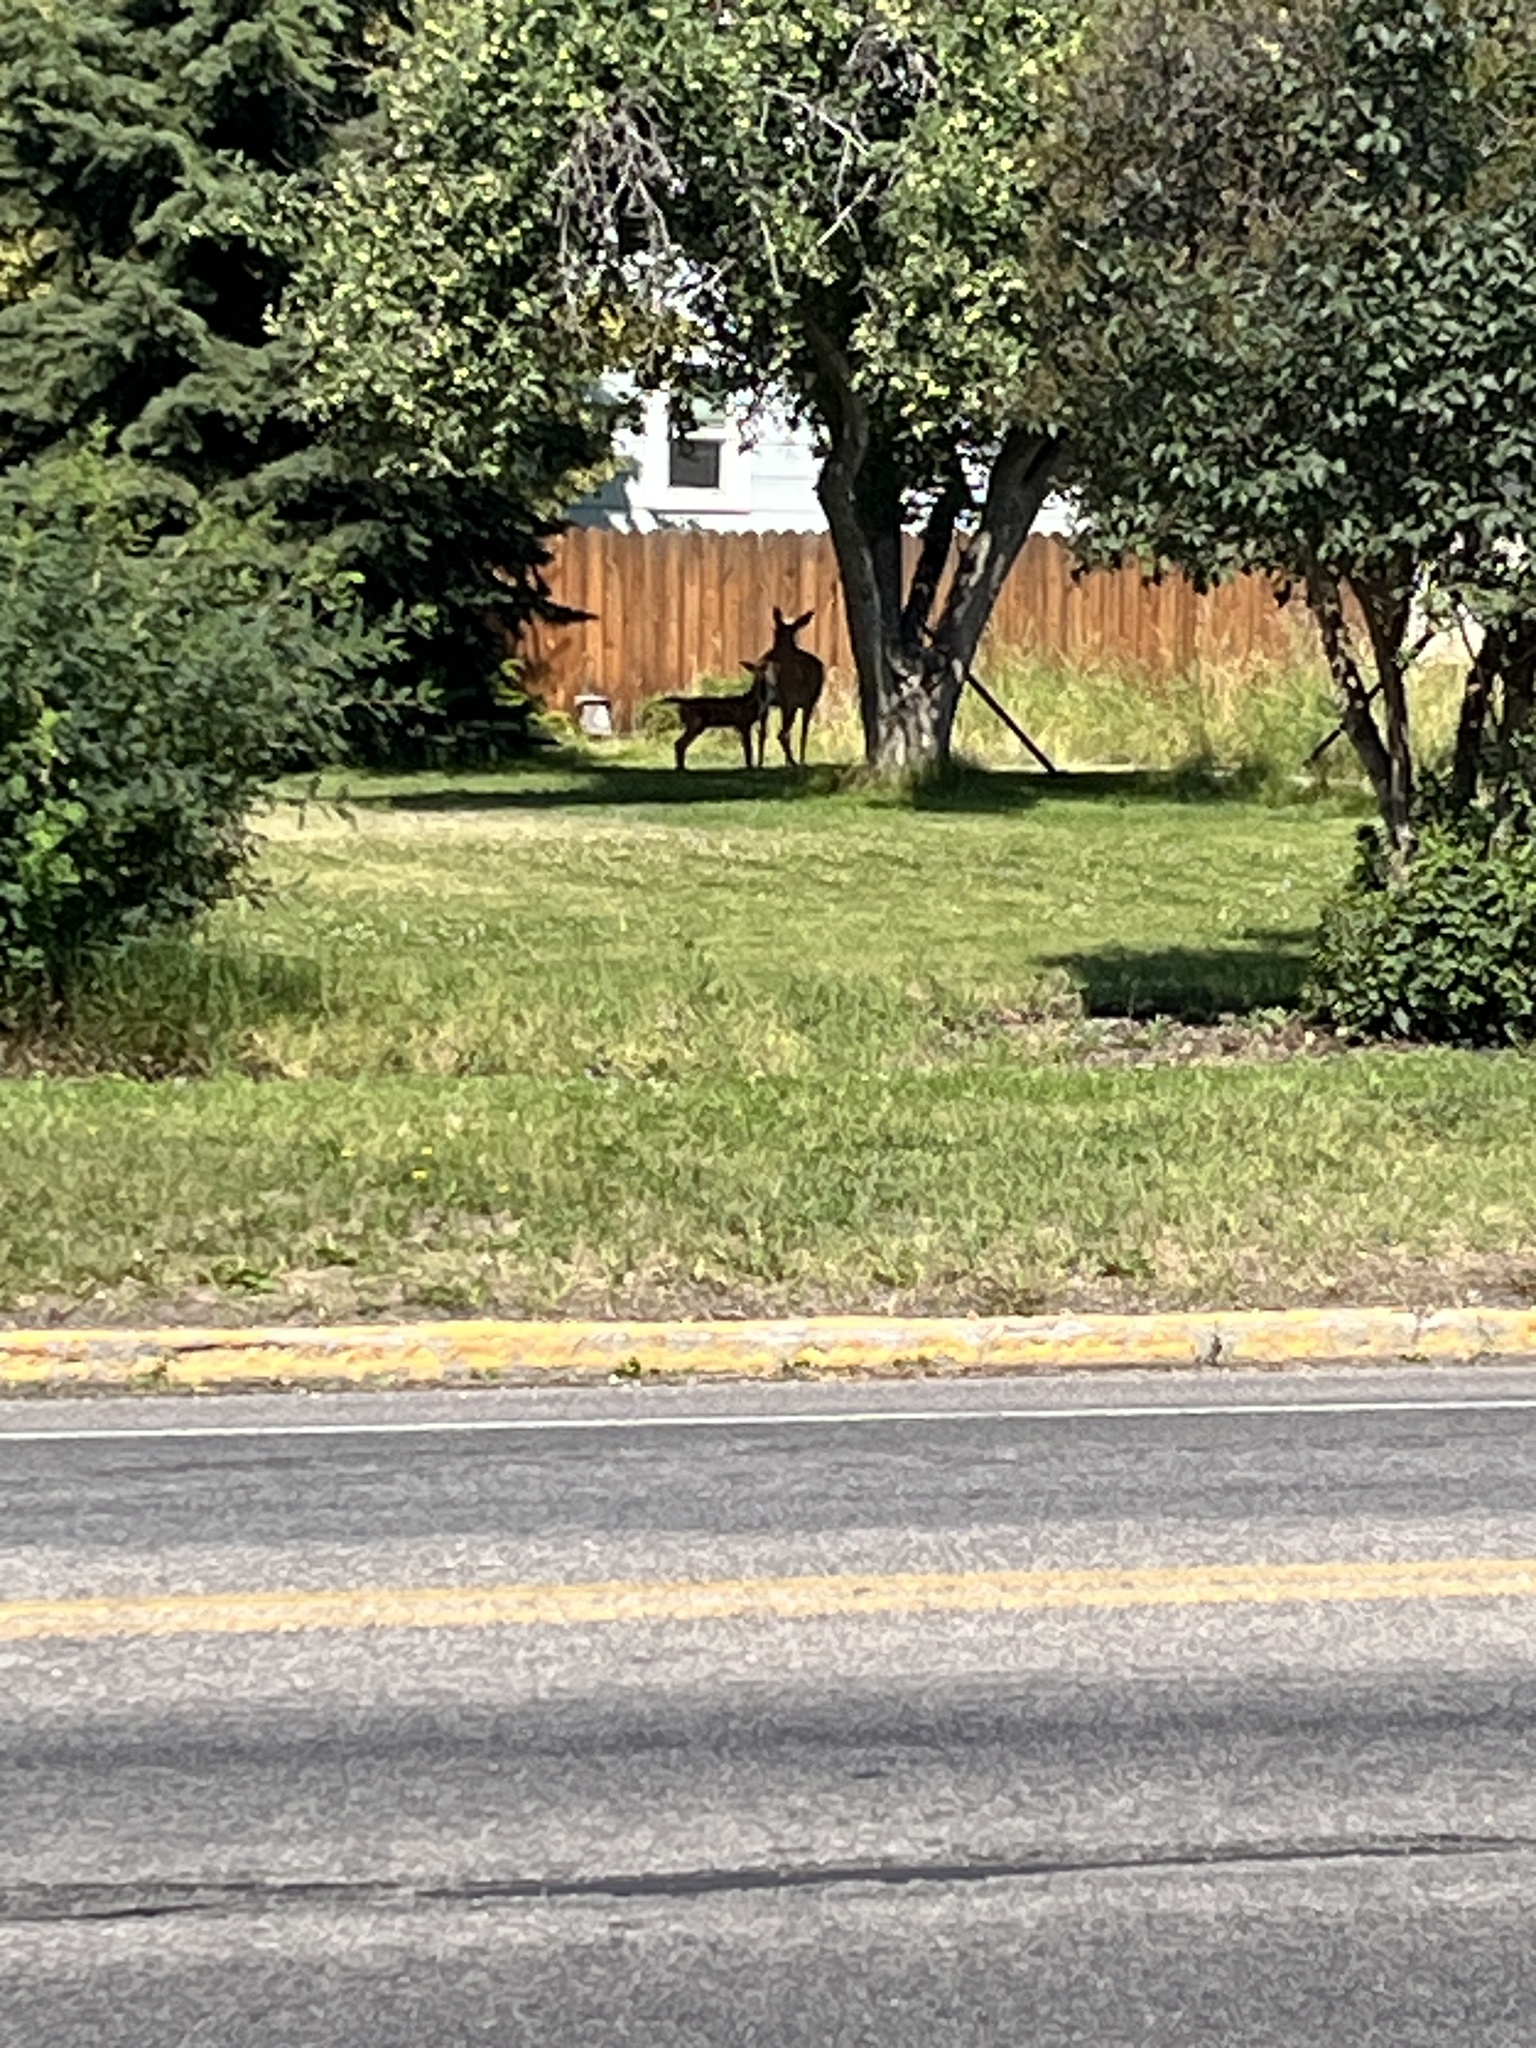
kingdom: Animalia
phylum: Chordata
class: Mammalia
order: Artiodactyla
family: Cervidae
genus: Odocoileus
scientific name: Odocoileus virginianus
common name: White-tailed deer
